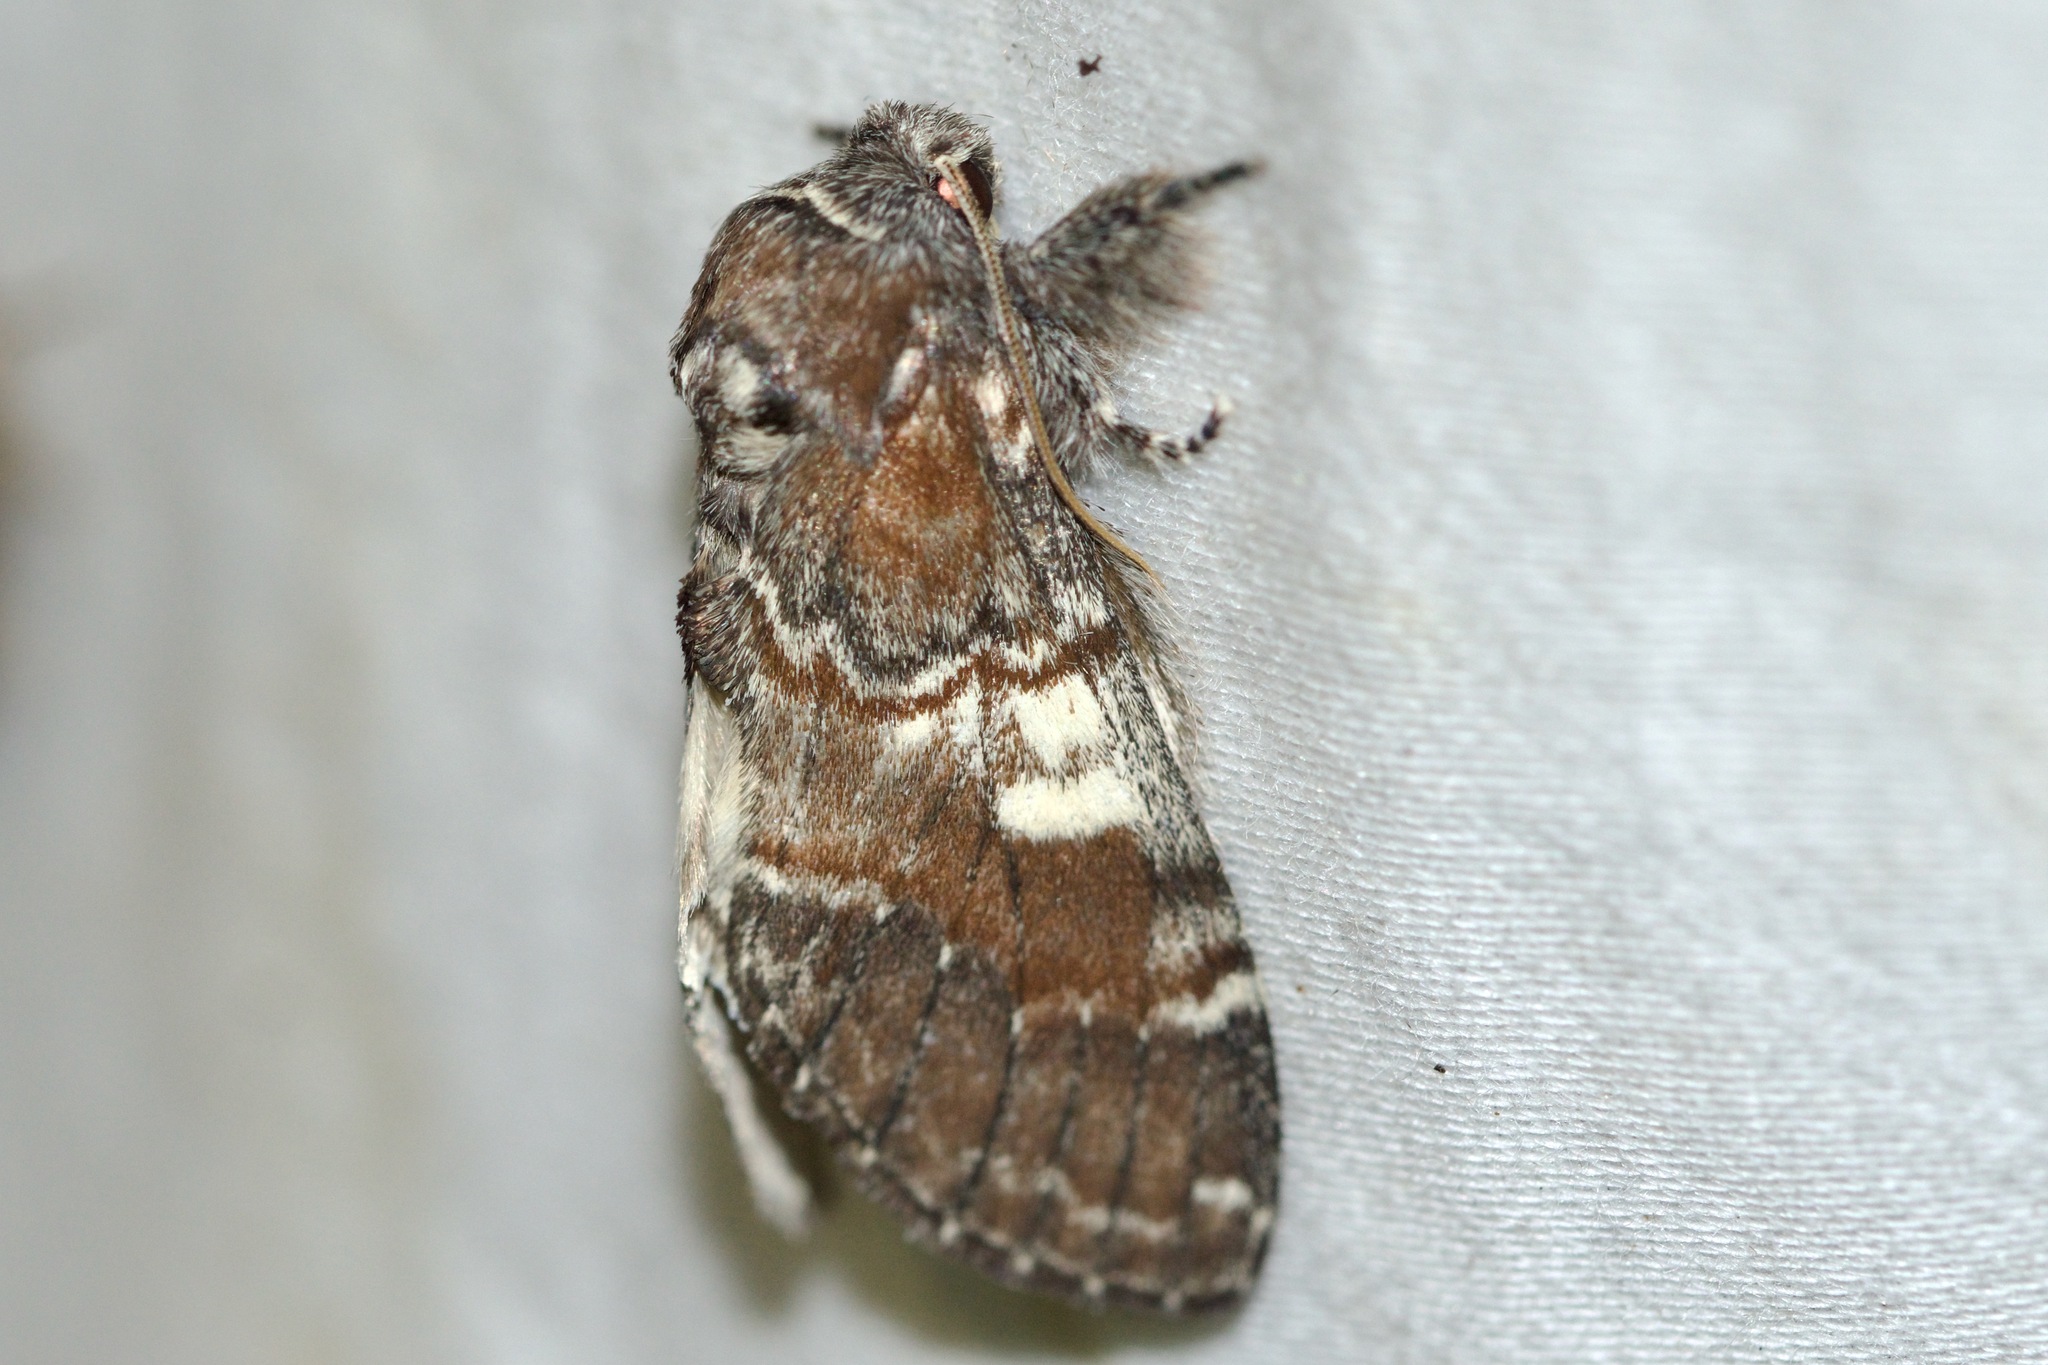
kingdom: Animalia
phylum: Arthropoda
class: Insecta
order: Lepidoptera
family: Notodontidae
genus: Peridea
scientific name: Peridea ferruginea
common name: Chocolate prominent
